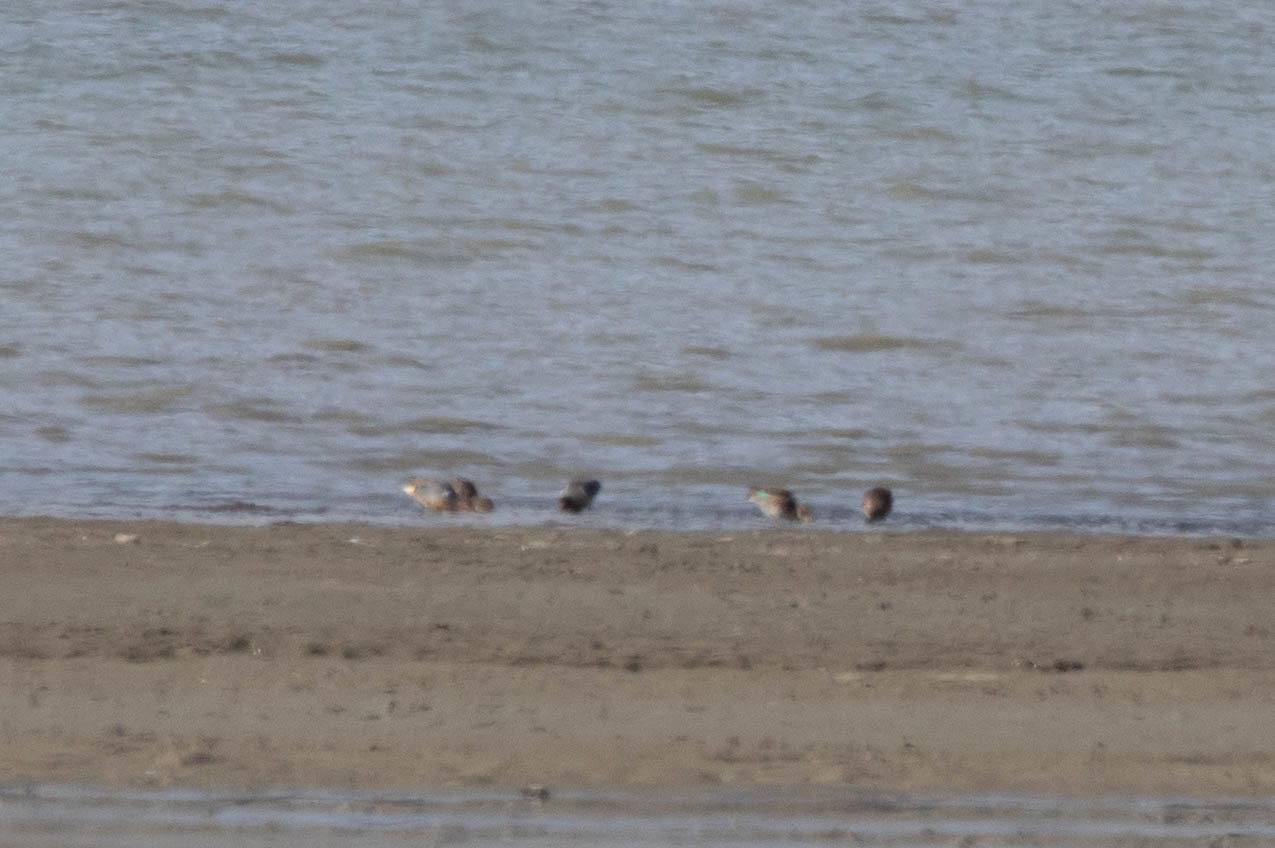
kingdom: Animalia
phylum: Chordata
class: Aves
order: Anseriformes
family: Anatidae
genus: Anas
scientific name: Anas crecca
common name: Eurasian teal
